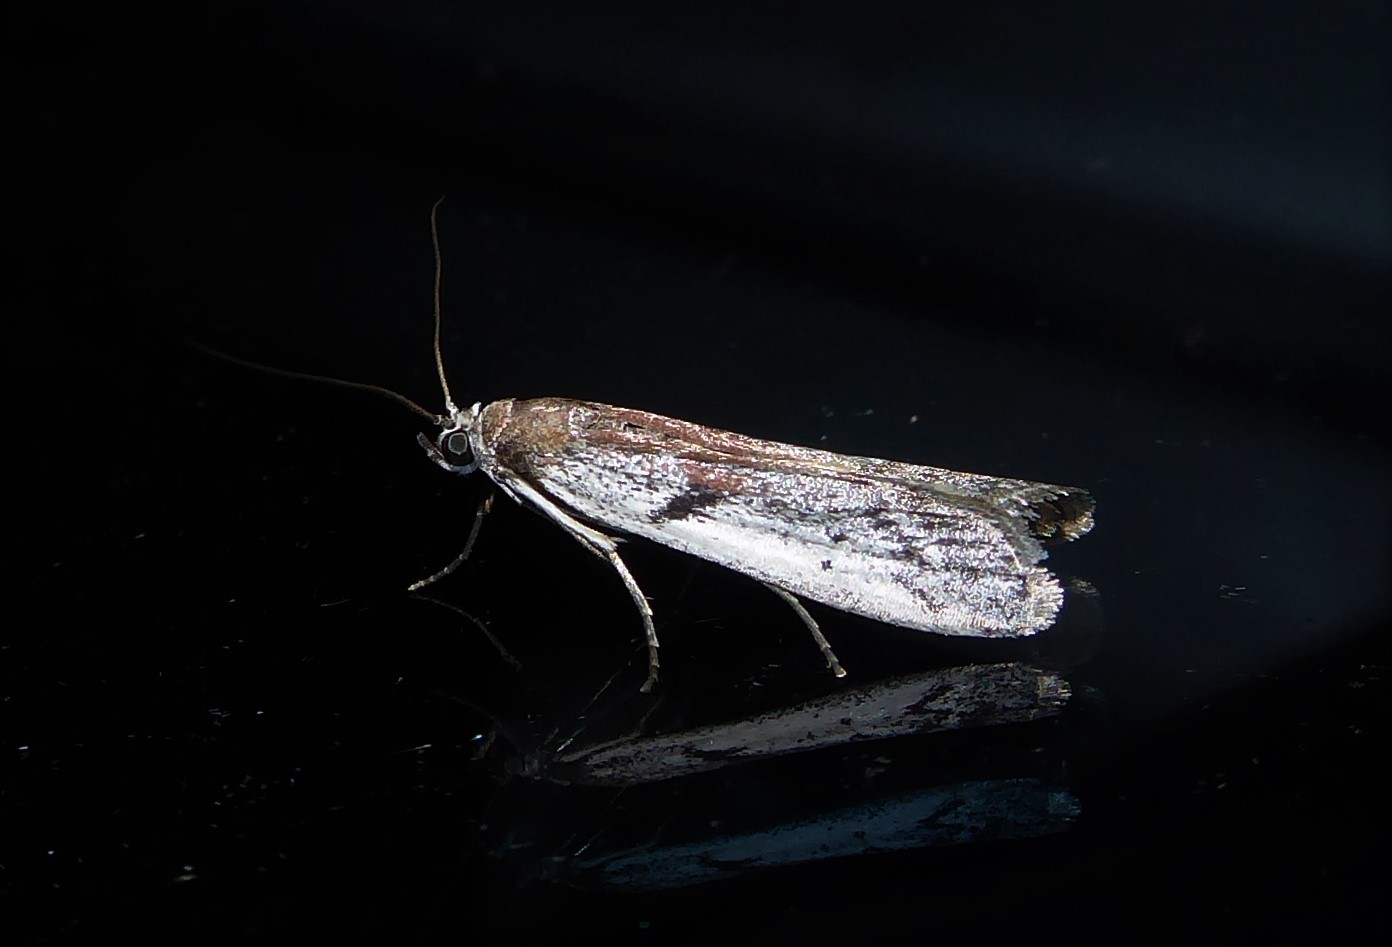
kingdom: Animalia
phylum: Arthropoda
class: Insecta
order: Lepidoptera
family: Pyralidae
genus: Patagoniodes
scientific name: Patagoniodes farinaria
